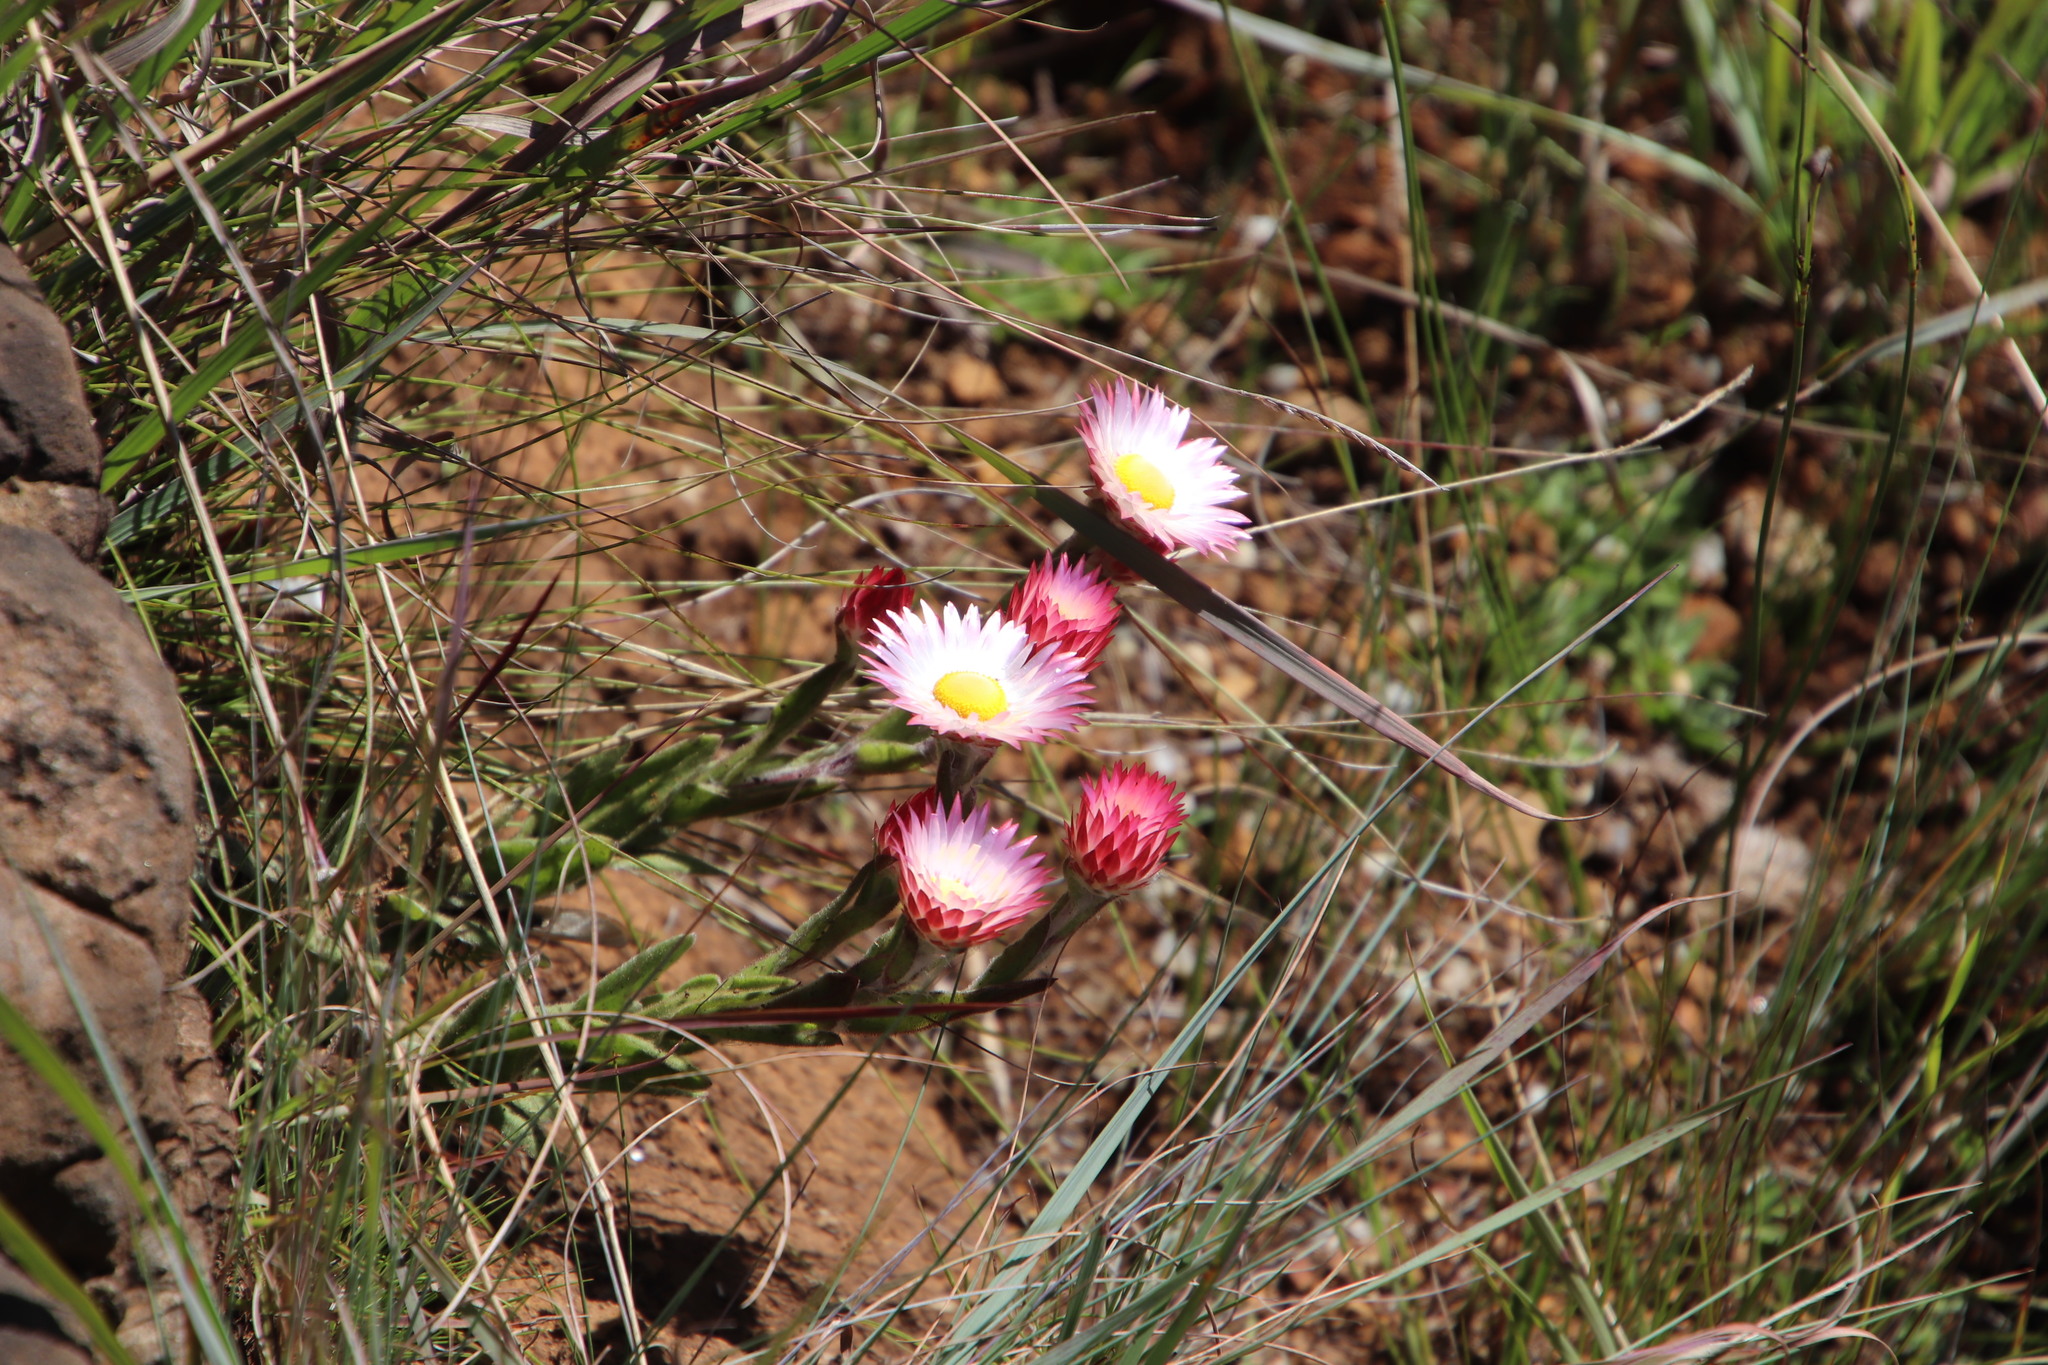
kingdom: Plantae
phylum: Tracheophyta
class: Magnoliopsida
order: Asterales
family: Asteraceae
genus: Helichrysum
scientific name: Helichrysum adenocarpum
